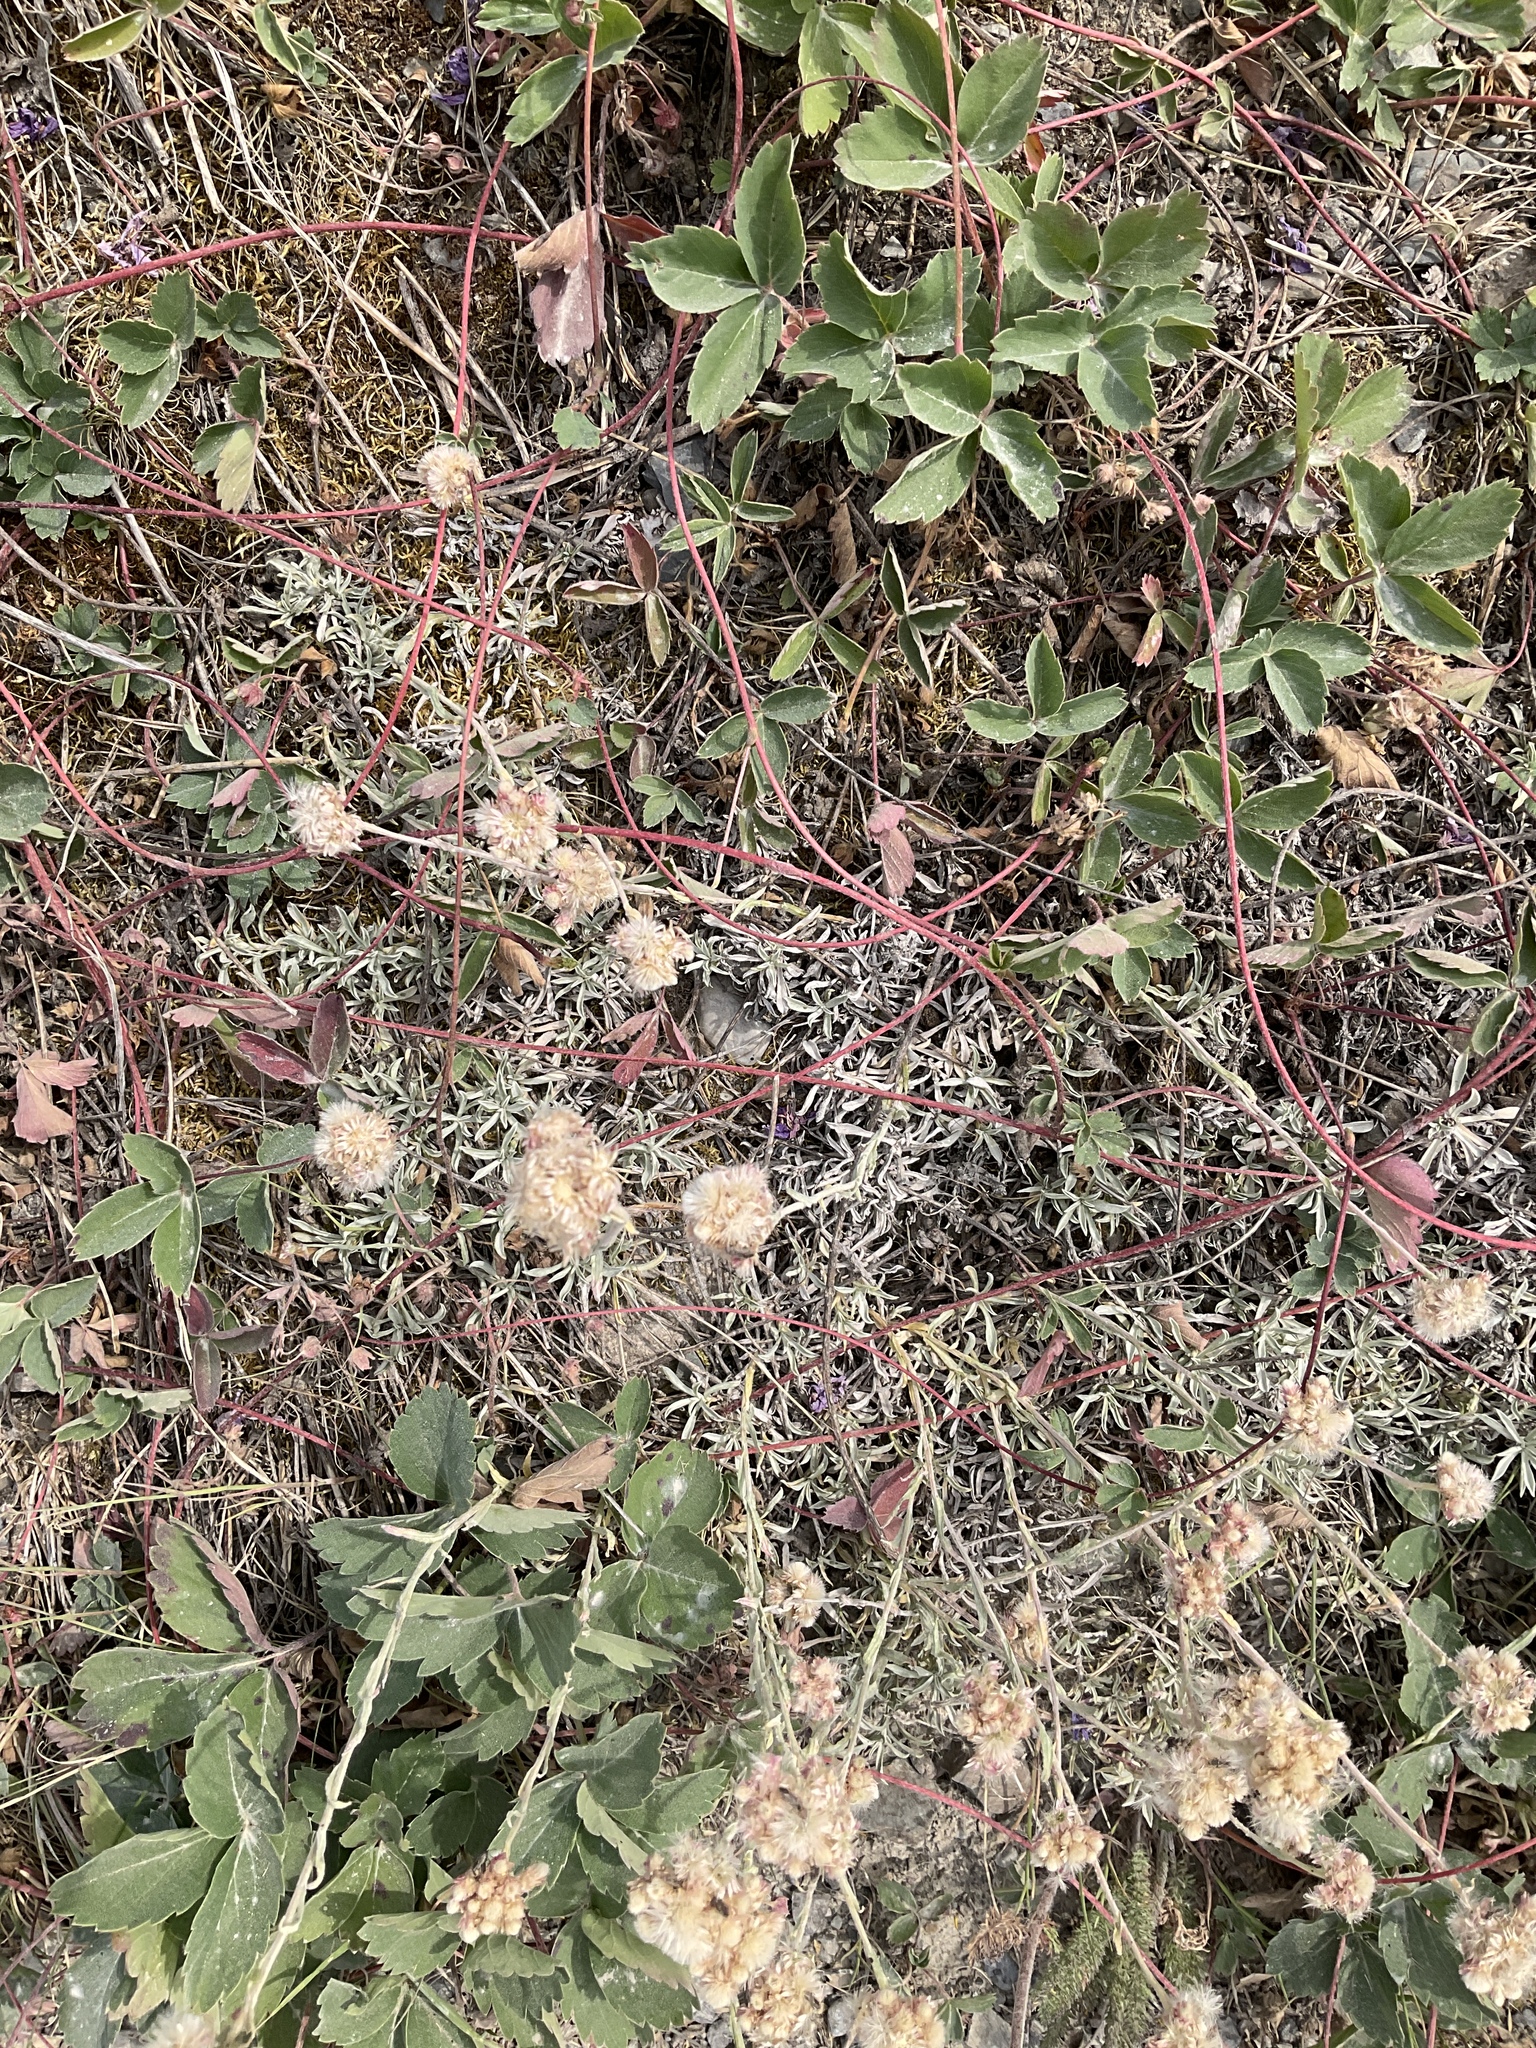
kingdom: Plantae
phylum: Tracheophyta
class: Magnoliopsida
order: Asterales
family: Asteraceae
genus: Antennaria
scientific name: Antennaria rosea
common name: Rosy pussytoes
